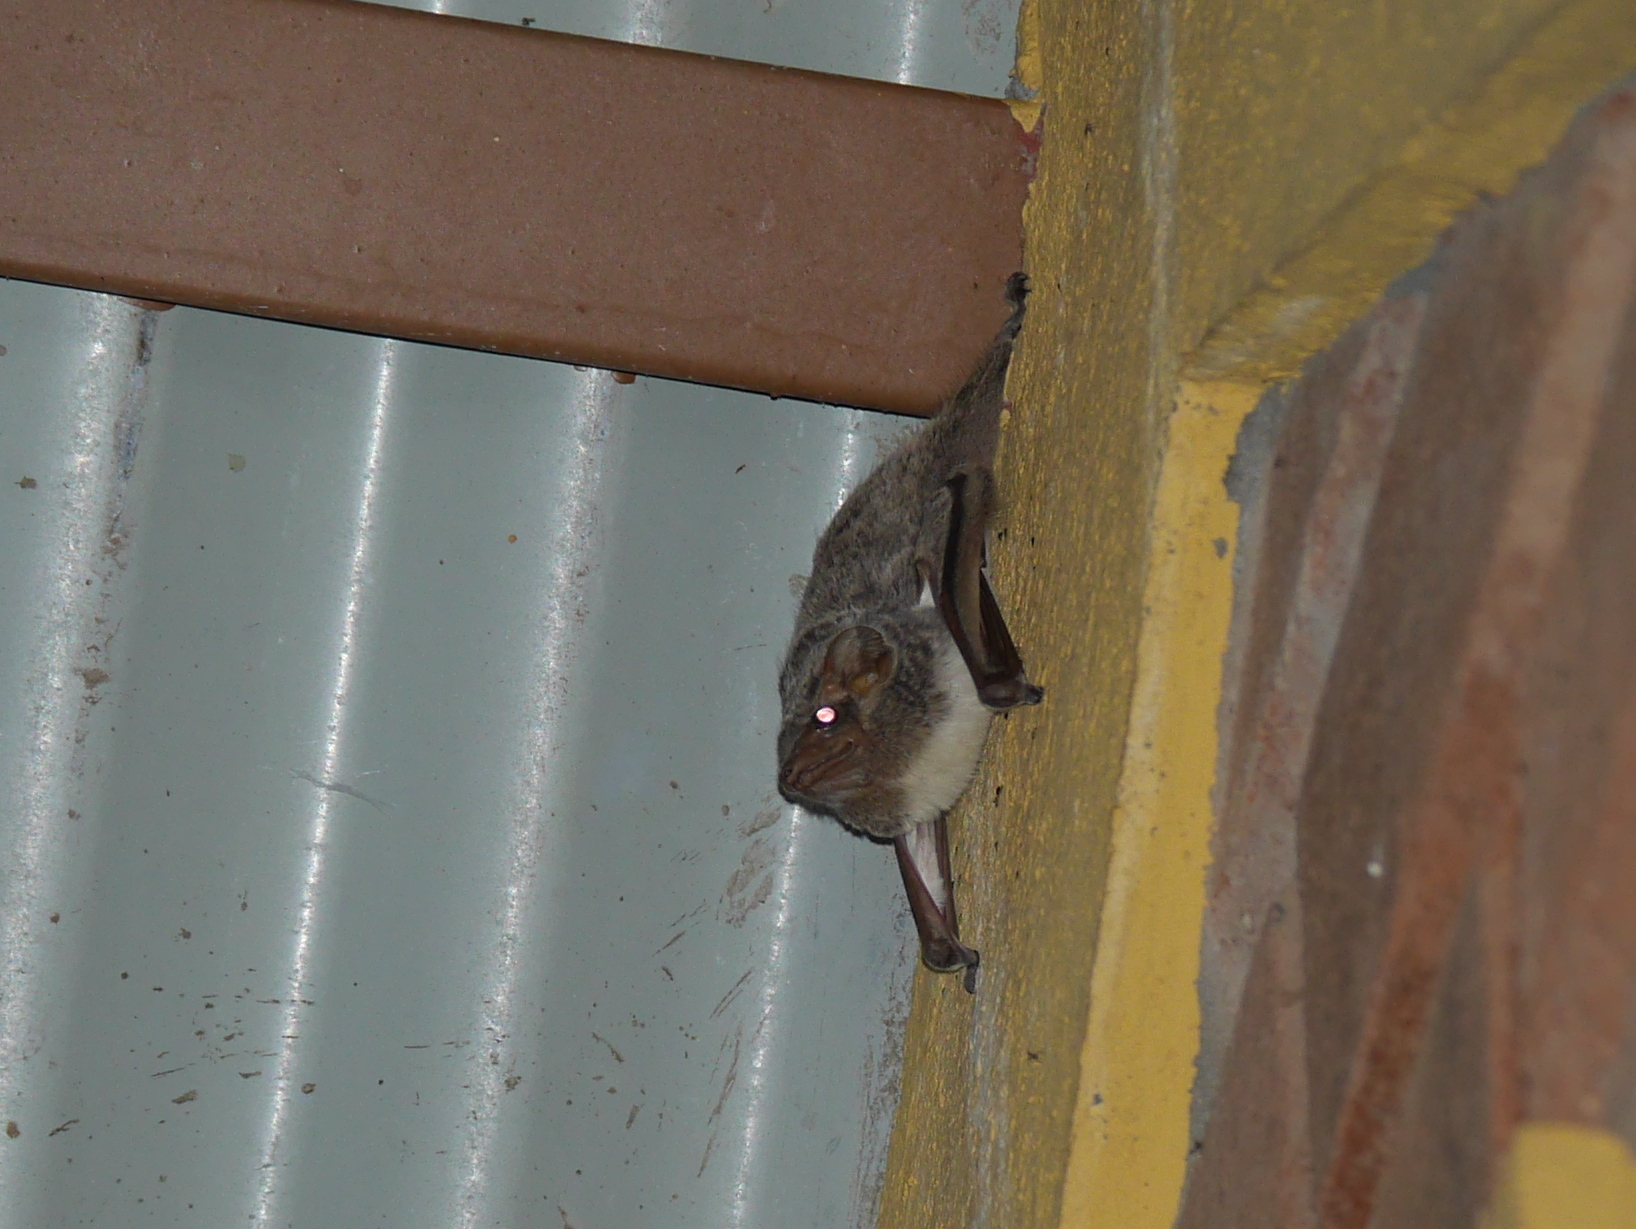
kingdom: Animalia
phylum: Chordata
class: Mammalia
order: Chiroptera
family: Emballonuridae
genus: Taphozous
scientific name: Taphozous mauritianus
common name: Mauritian tomb bat
